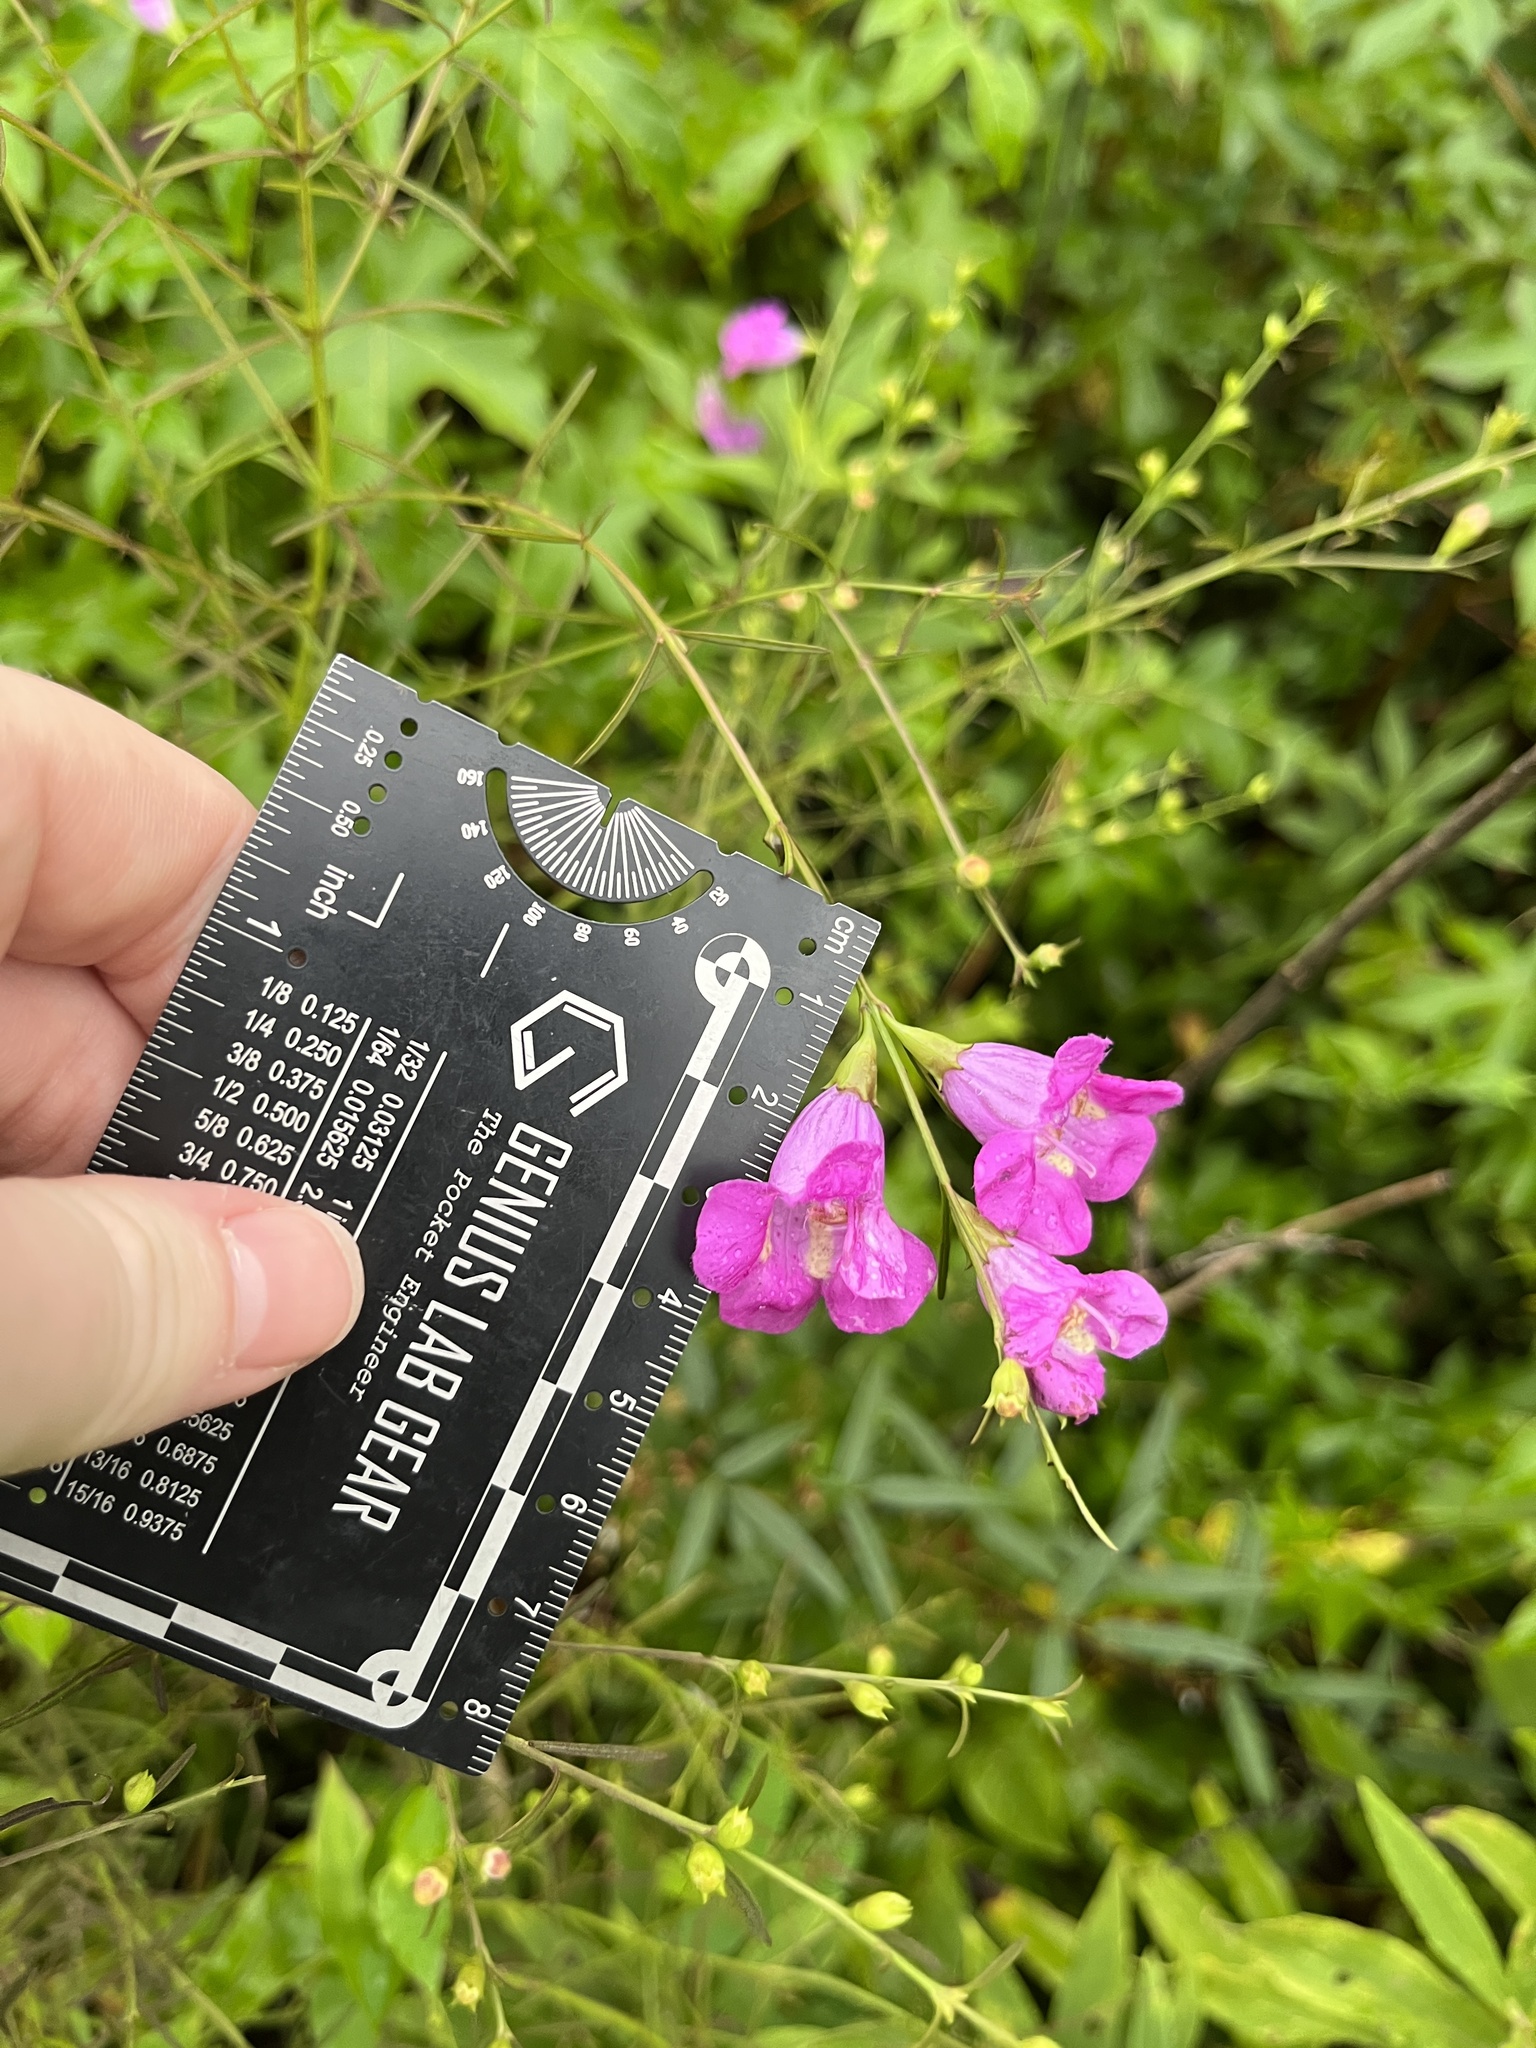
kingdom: Plantae
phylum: Tracheophyta
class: Magnoliopsida
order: Lamiales
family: Orobanchaceae
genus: Agalinis
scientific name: Agalinis purpurea
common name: Purple false foxglove
